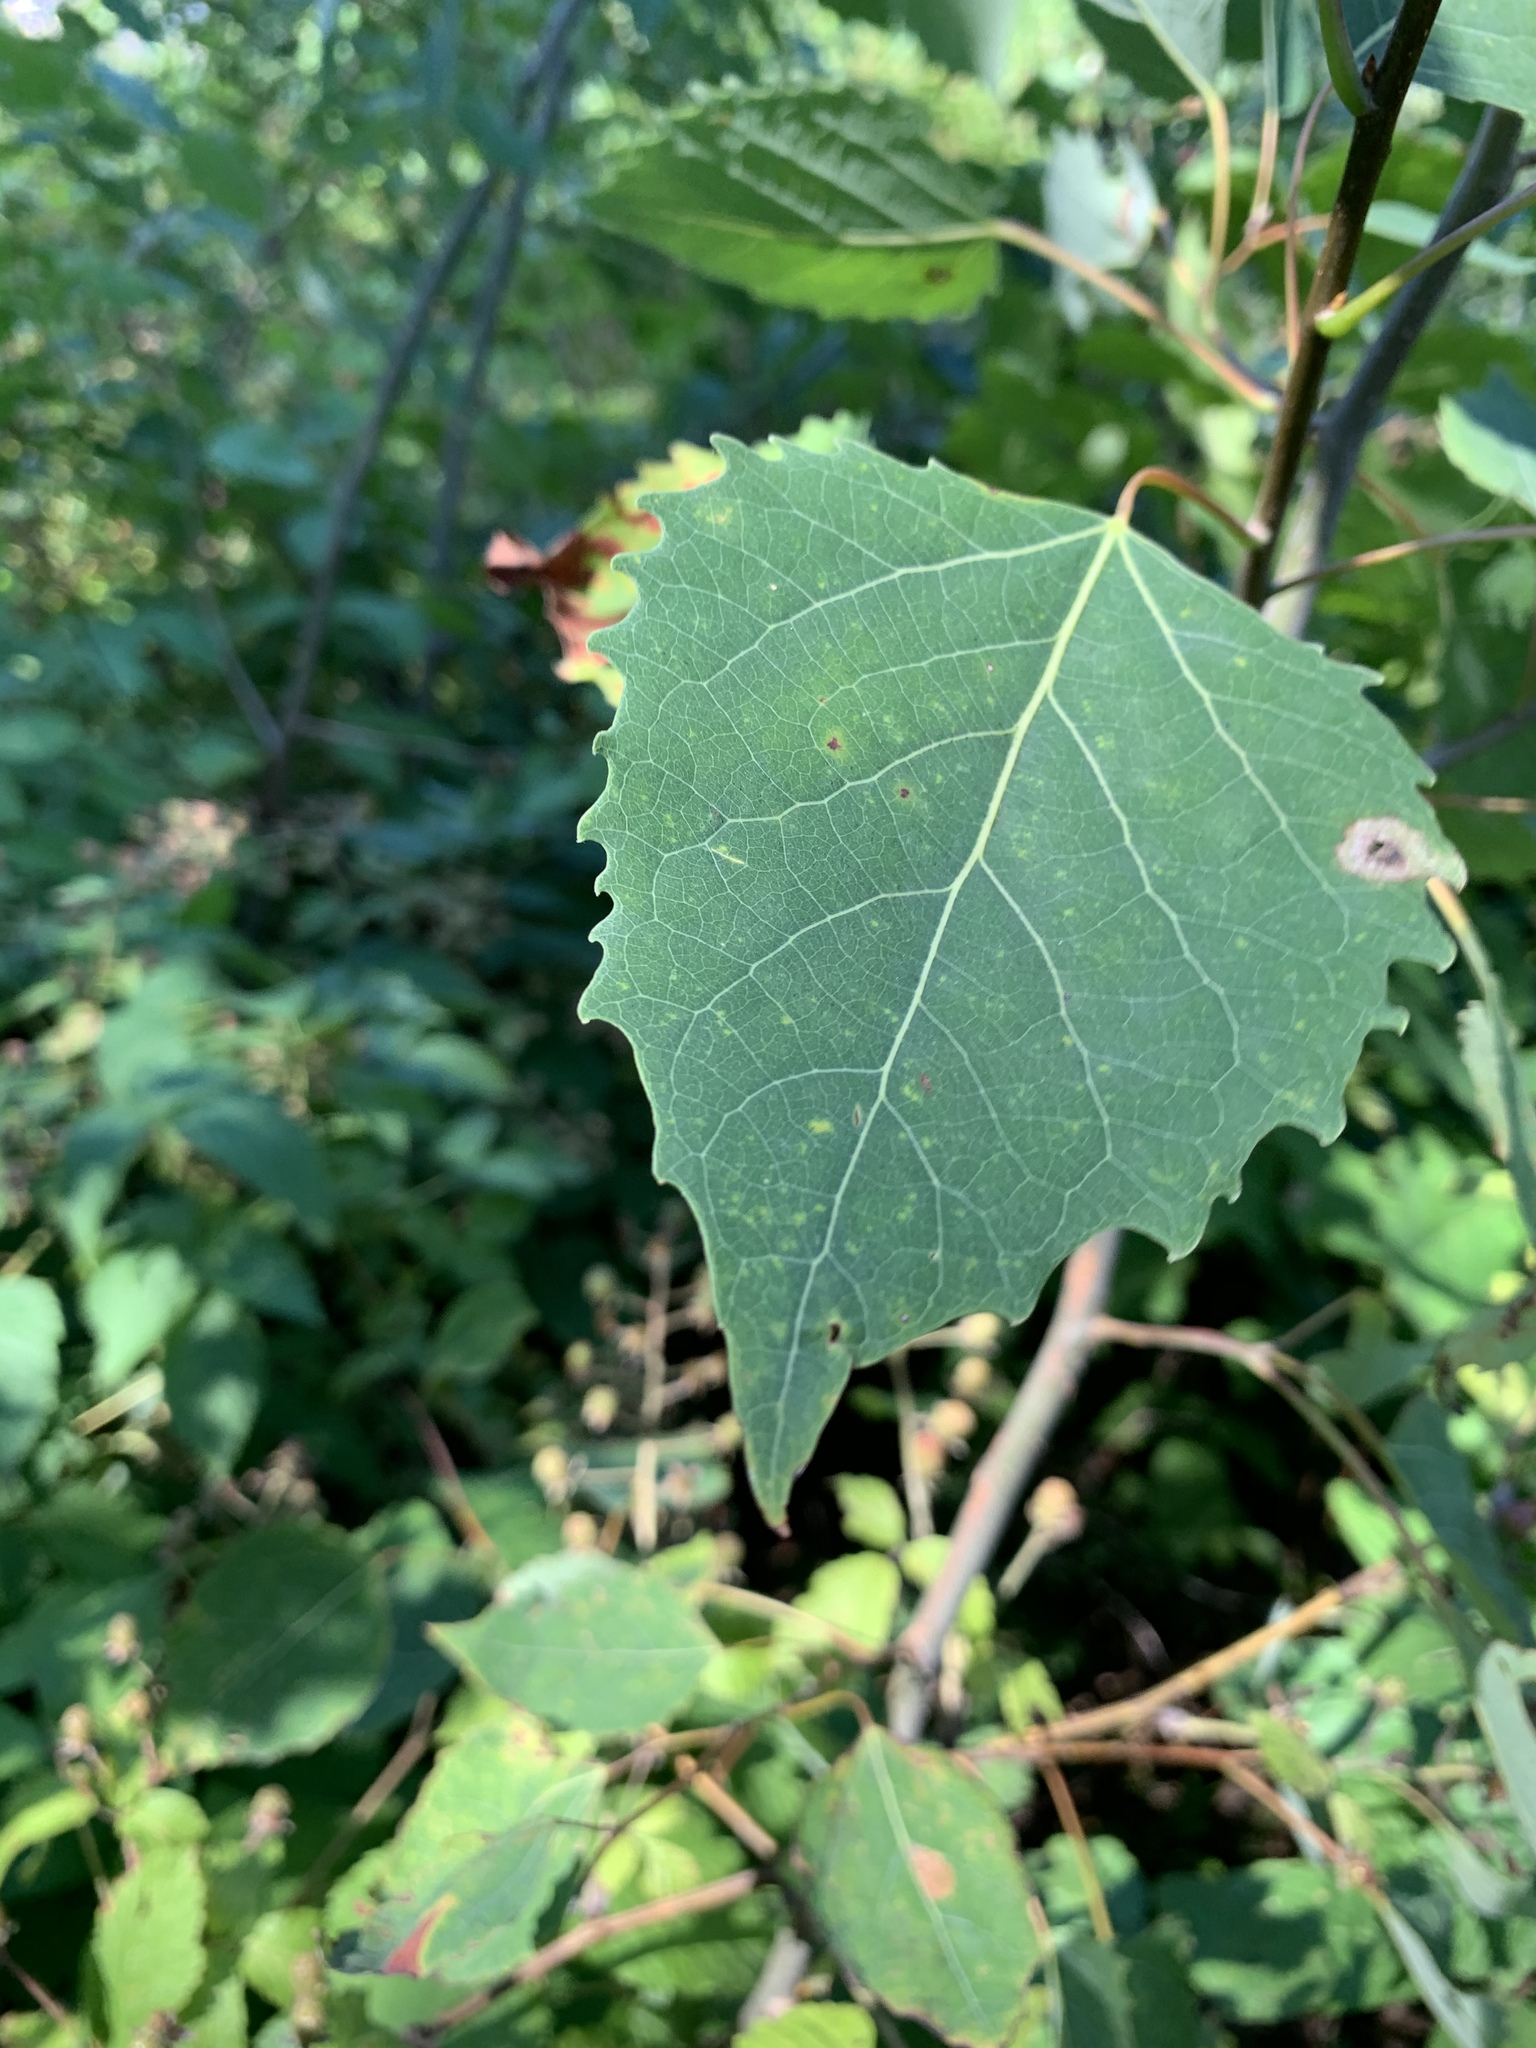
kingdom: Plantae
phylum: Tracheophyta
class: Magnoliopsida
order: Malpighiales
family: Salicaceae
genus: Populus
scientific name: Populus grandidentata
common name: Bigtooth aspen
